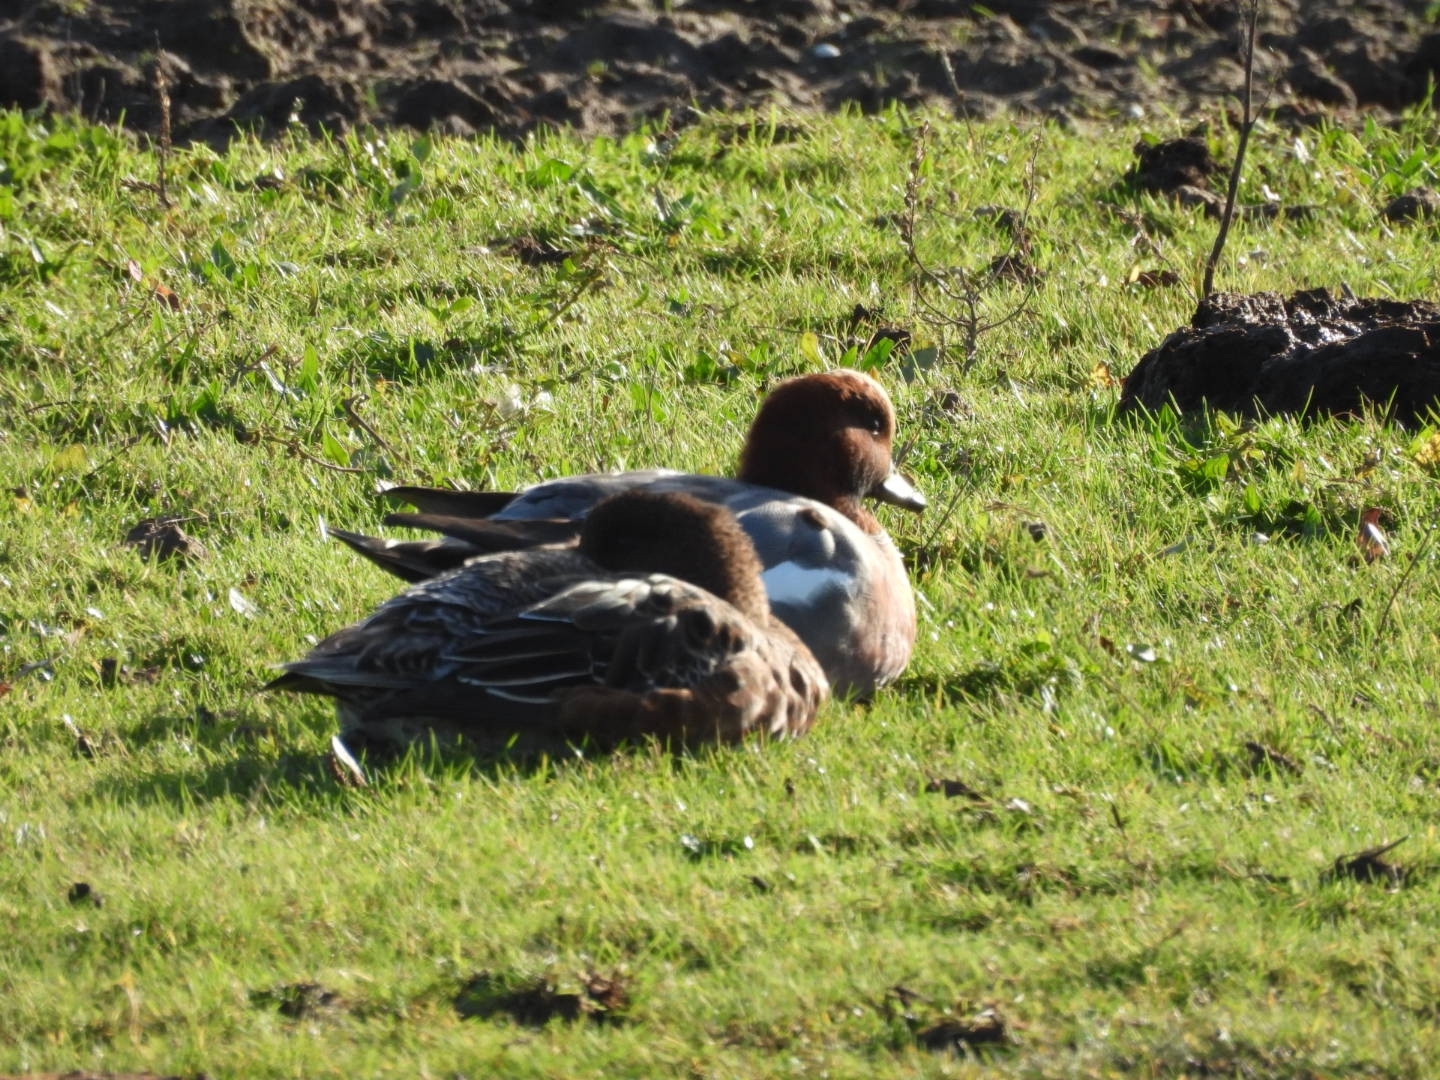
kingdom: Animalia
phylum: Chordata
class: Aves
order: Anseriformes
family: Anatidae
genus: Mareca
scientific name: Mareca penelope
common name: Eurasian wigeon
